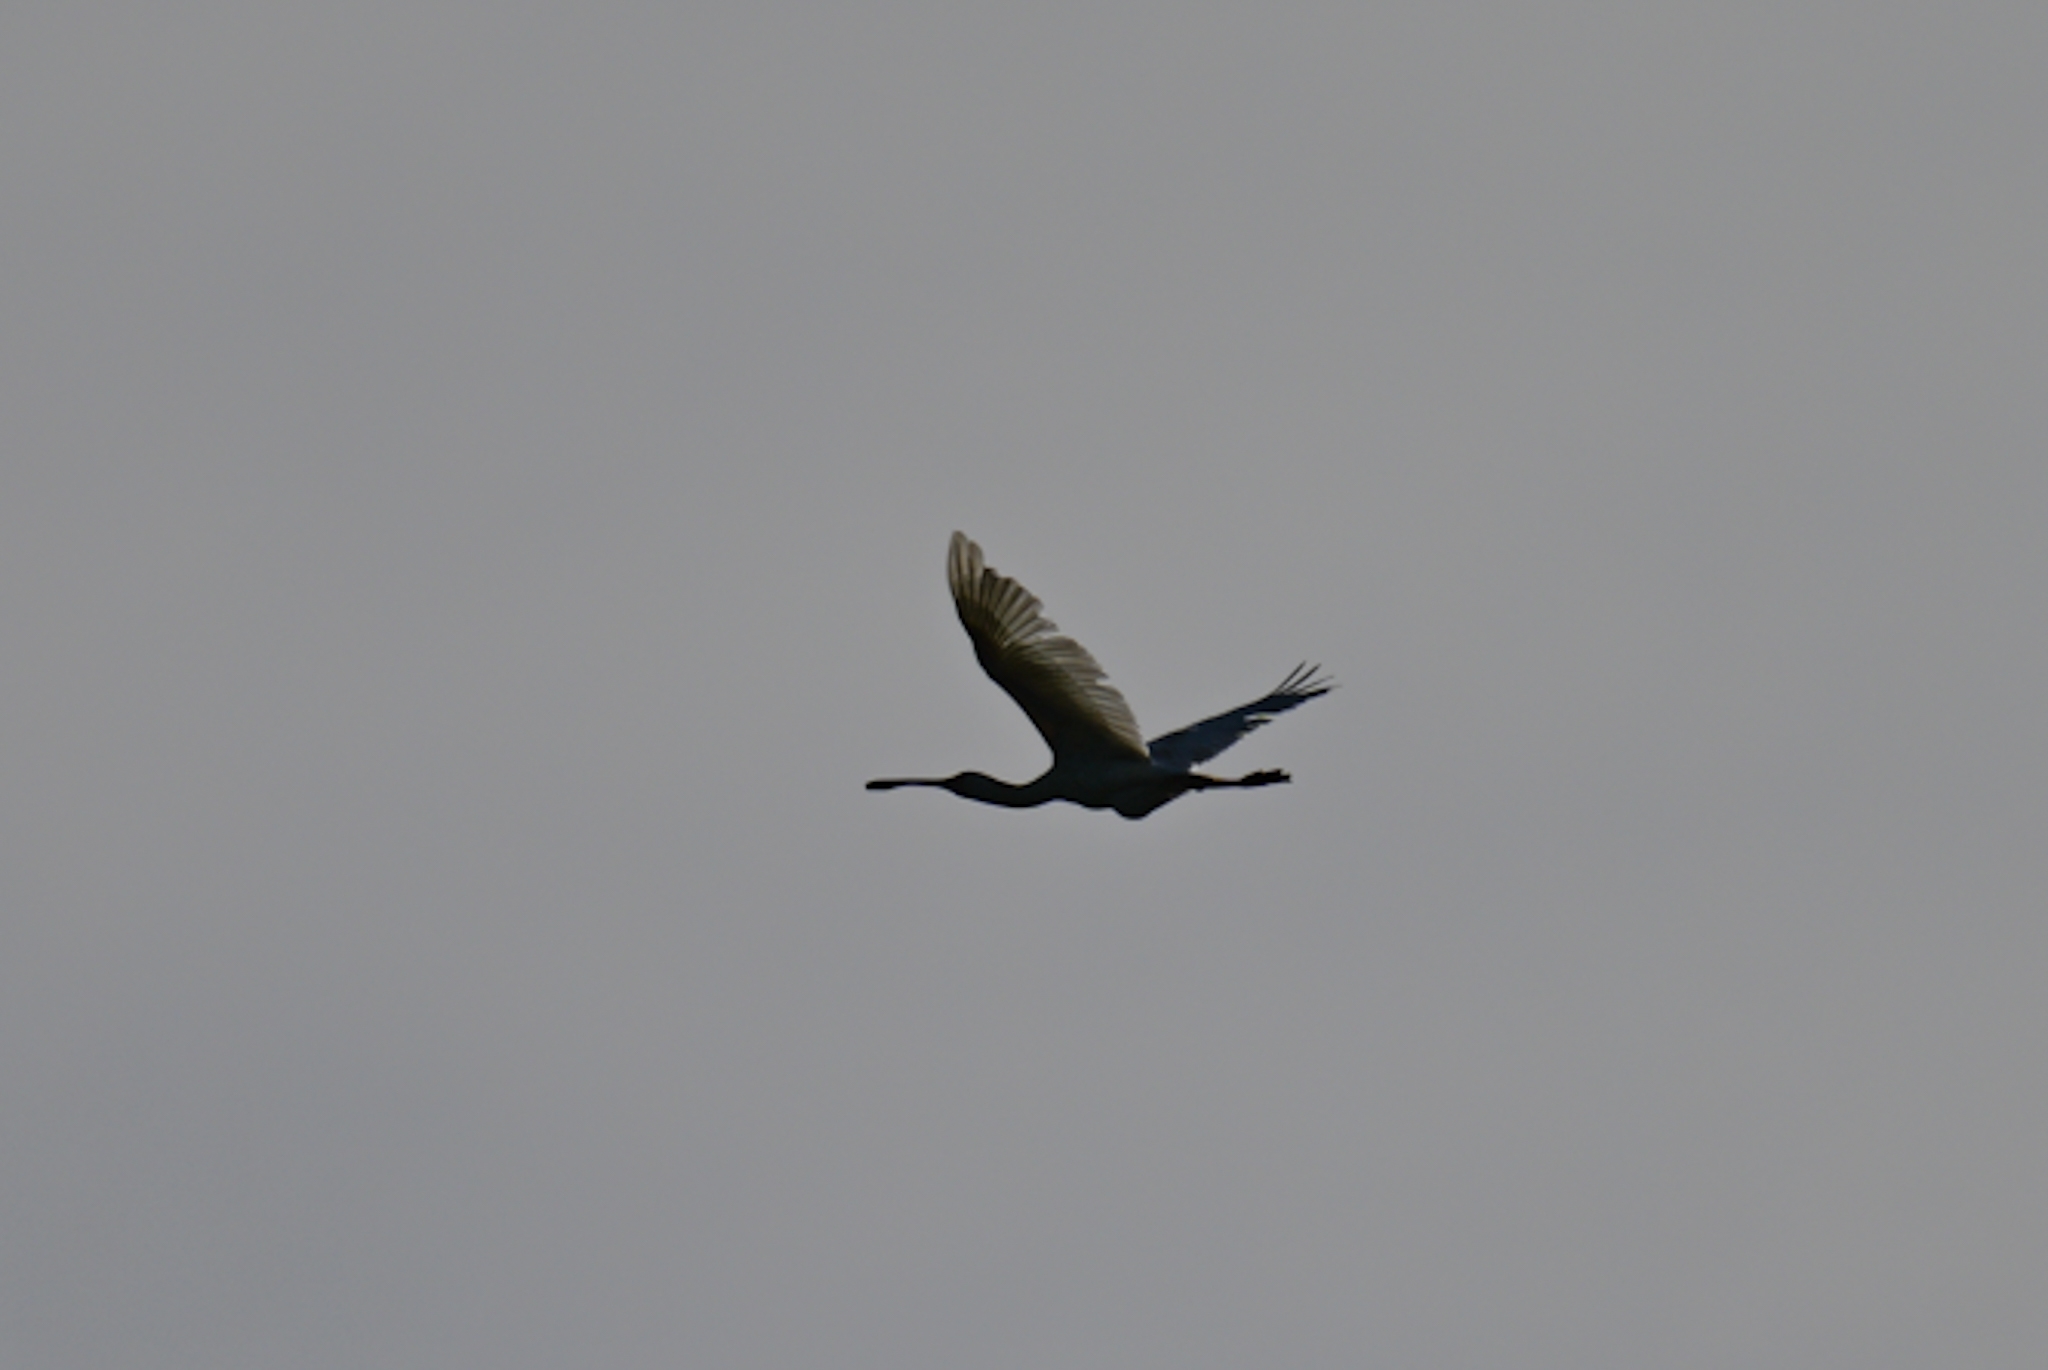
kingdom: Animalia
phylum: Chordata
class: Aves
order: Pelecaniformes
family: Threskiornithidae
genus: Platalea
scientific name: Platalea alba
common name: African spoonbill
